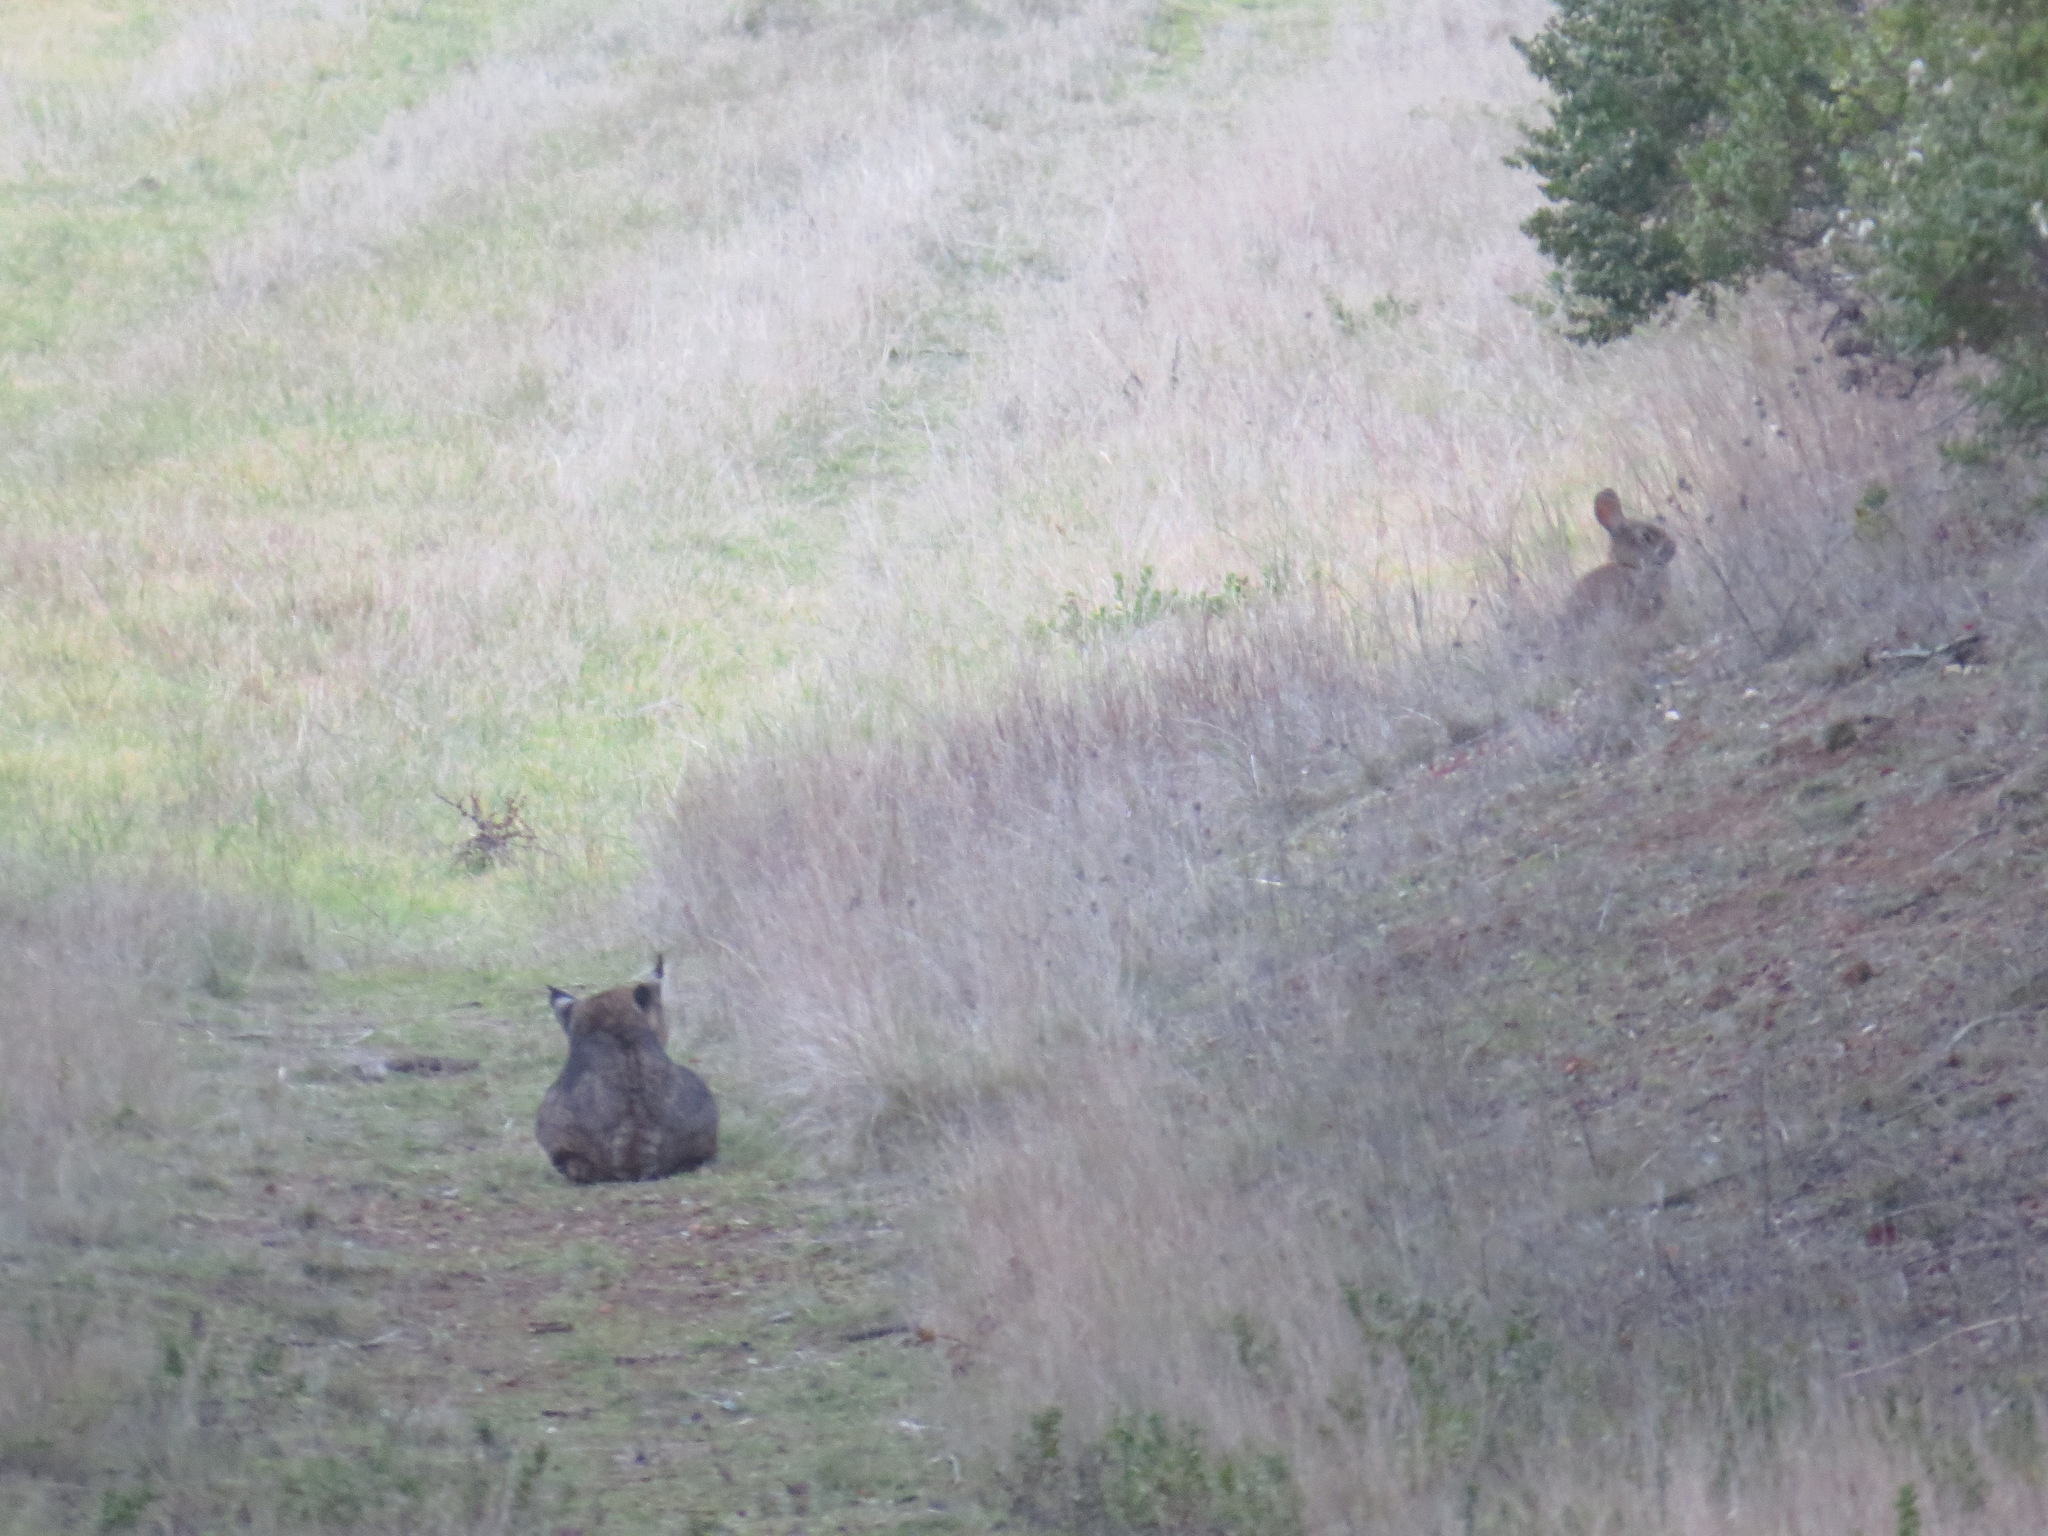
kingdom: Animalia
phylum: Chordata
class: Mammalia
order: Carnivora
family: Felidae
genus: Lynx
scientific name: Lynx rufus
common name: Bobcat
